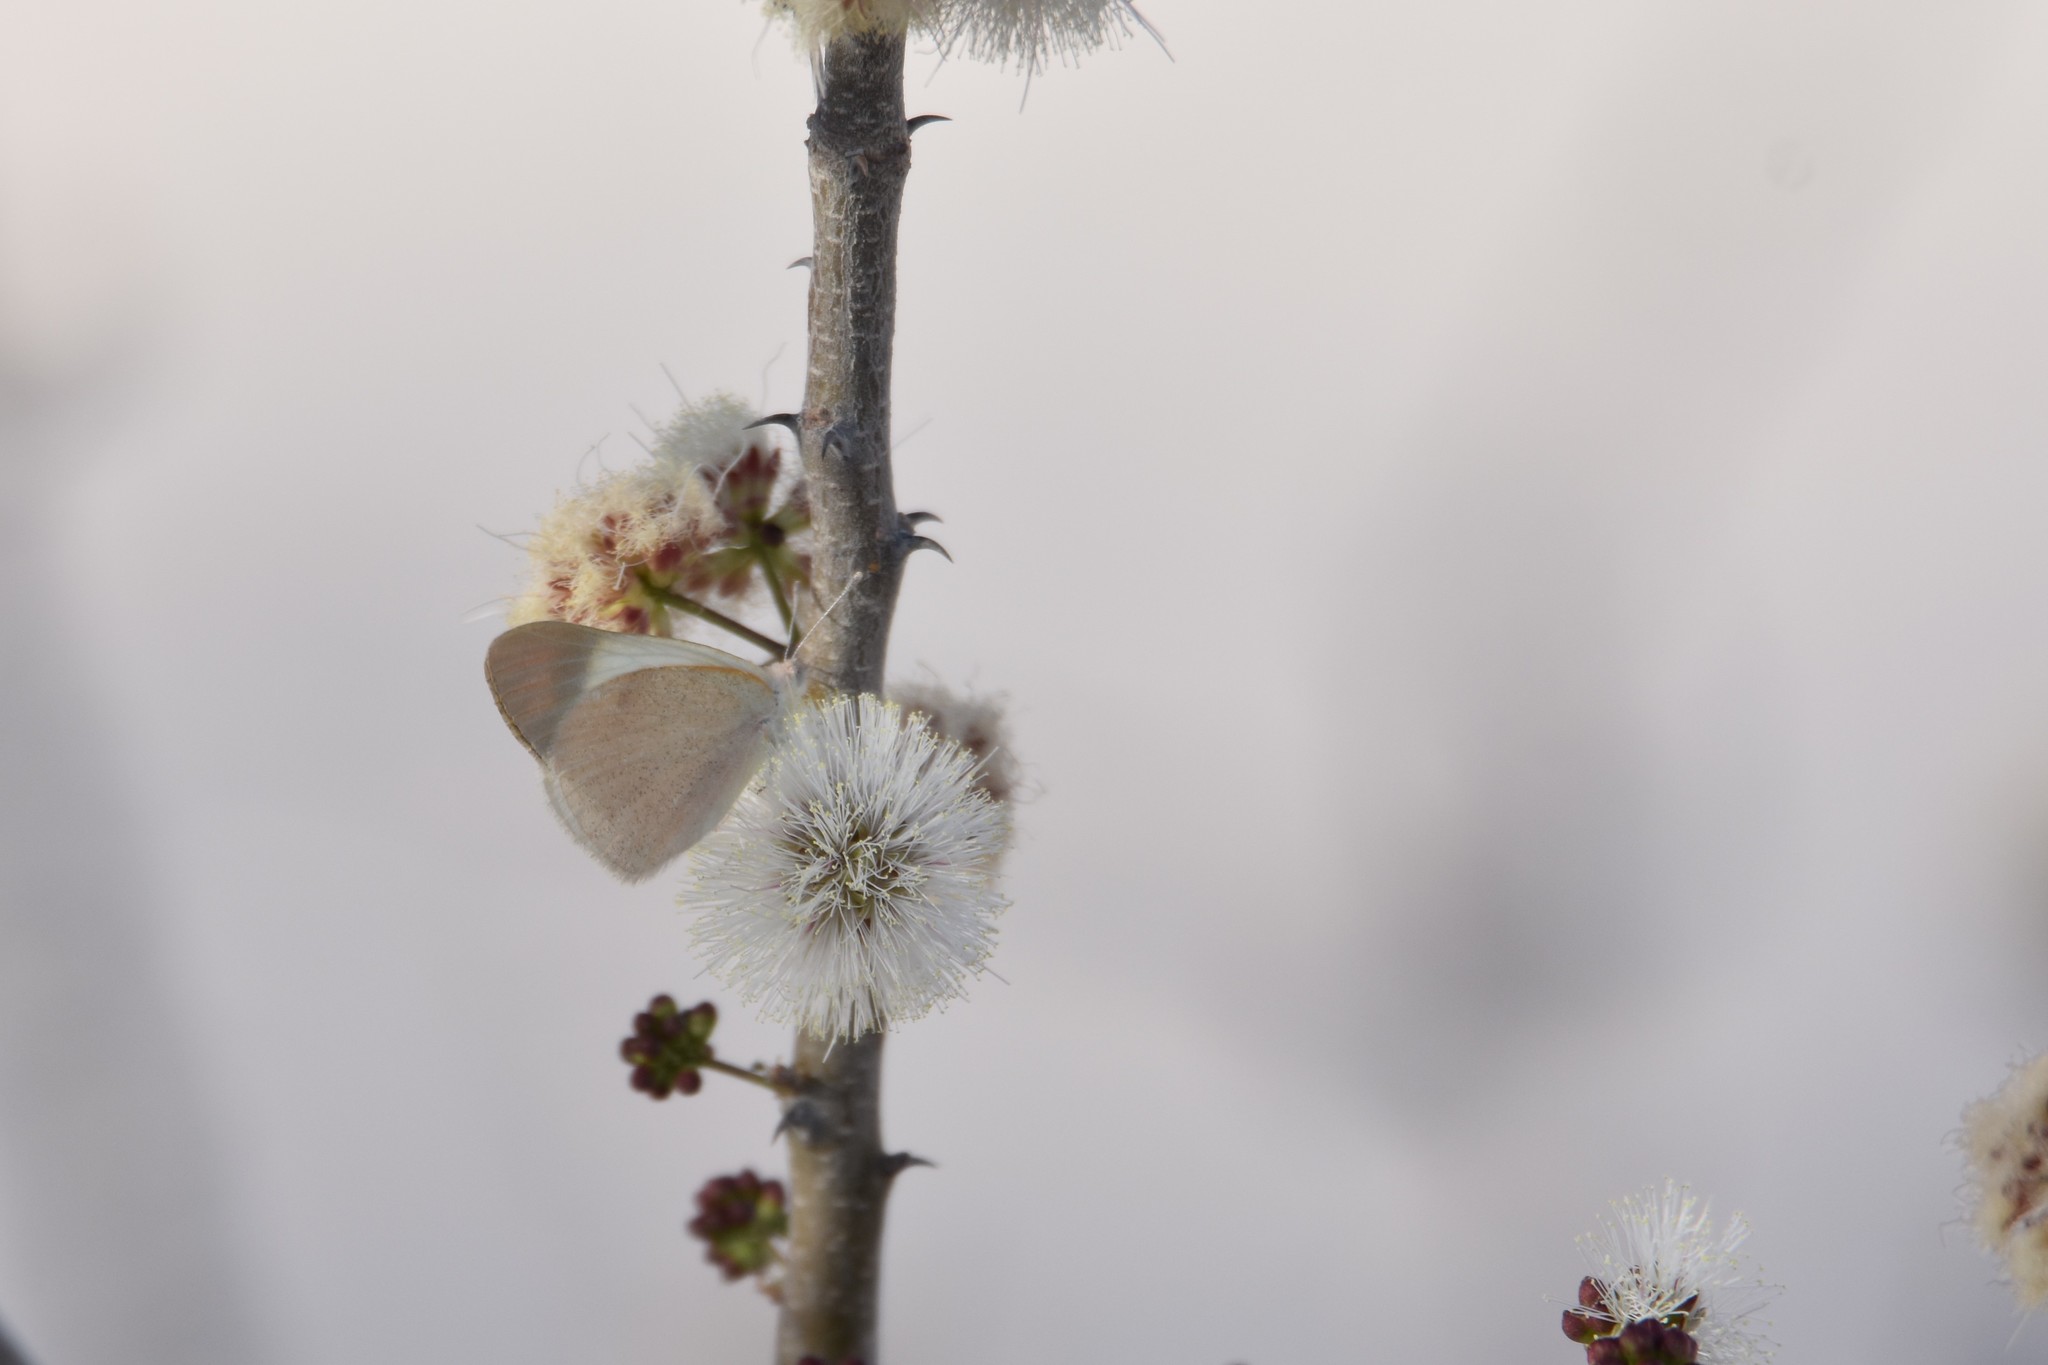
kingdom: Animalia
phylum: Arthropoda
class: Insecta
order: Lepidoptera
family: Pieridae
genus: Teracolus
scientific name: Teracolus agoye
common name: Speckled sulphur tip
